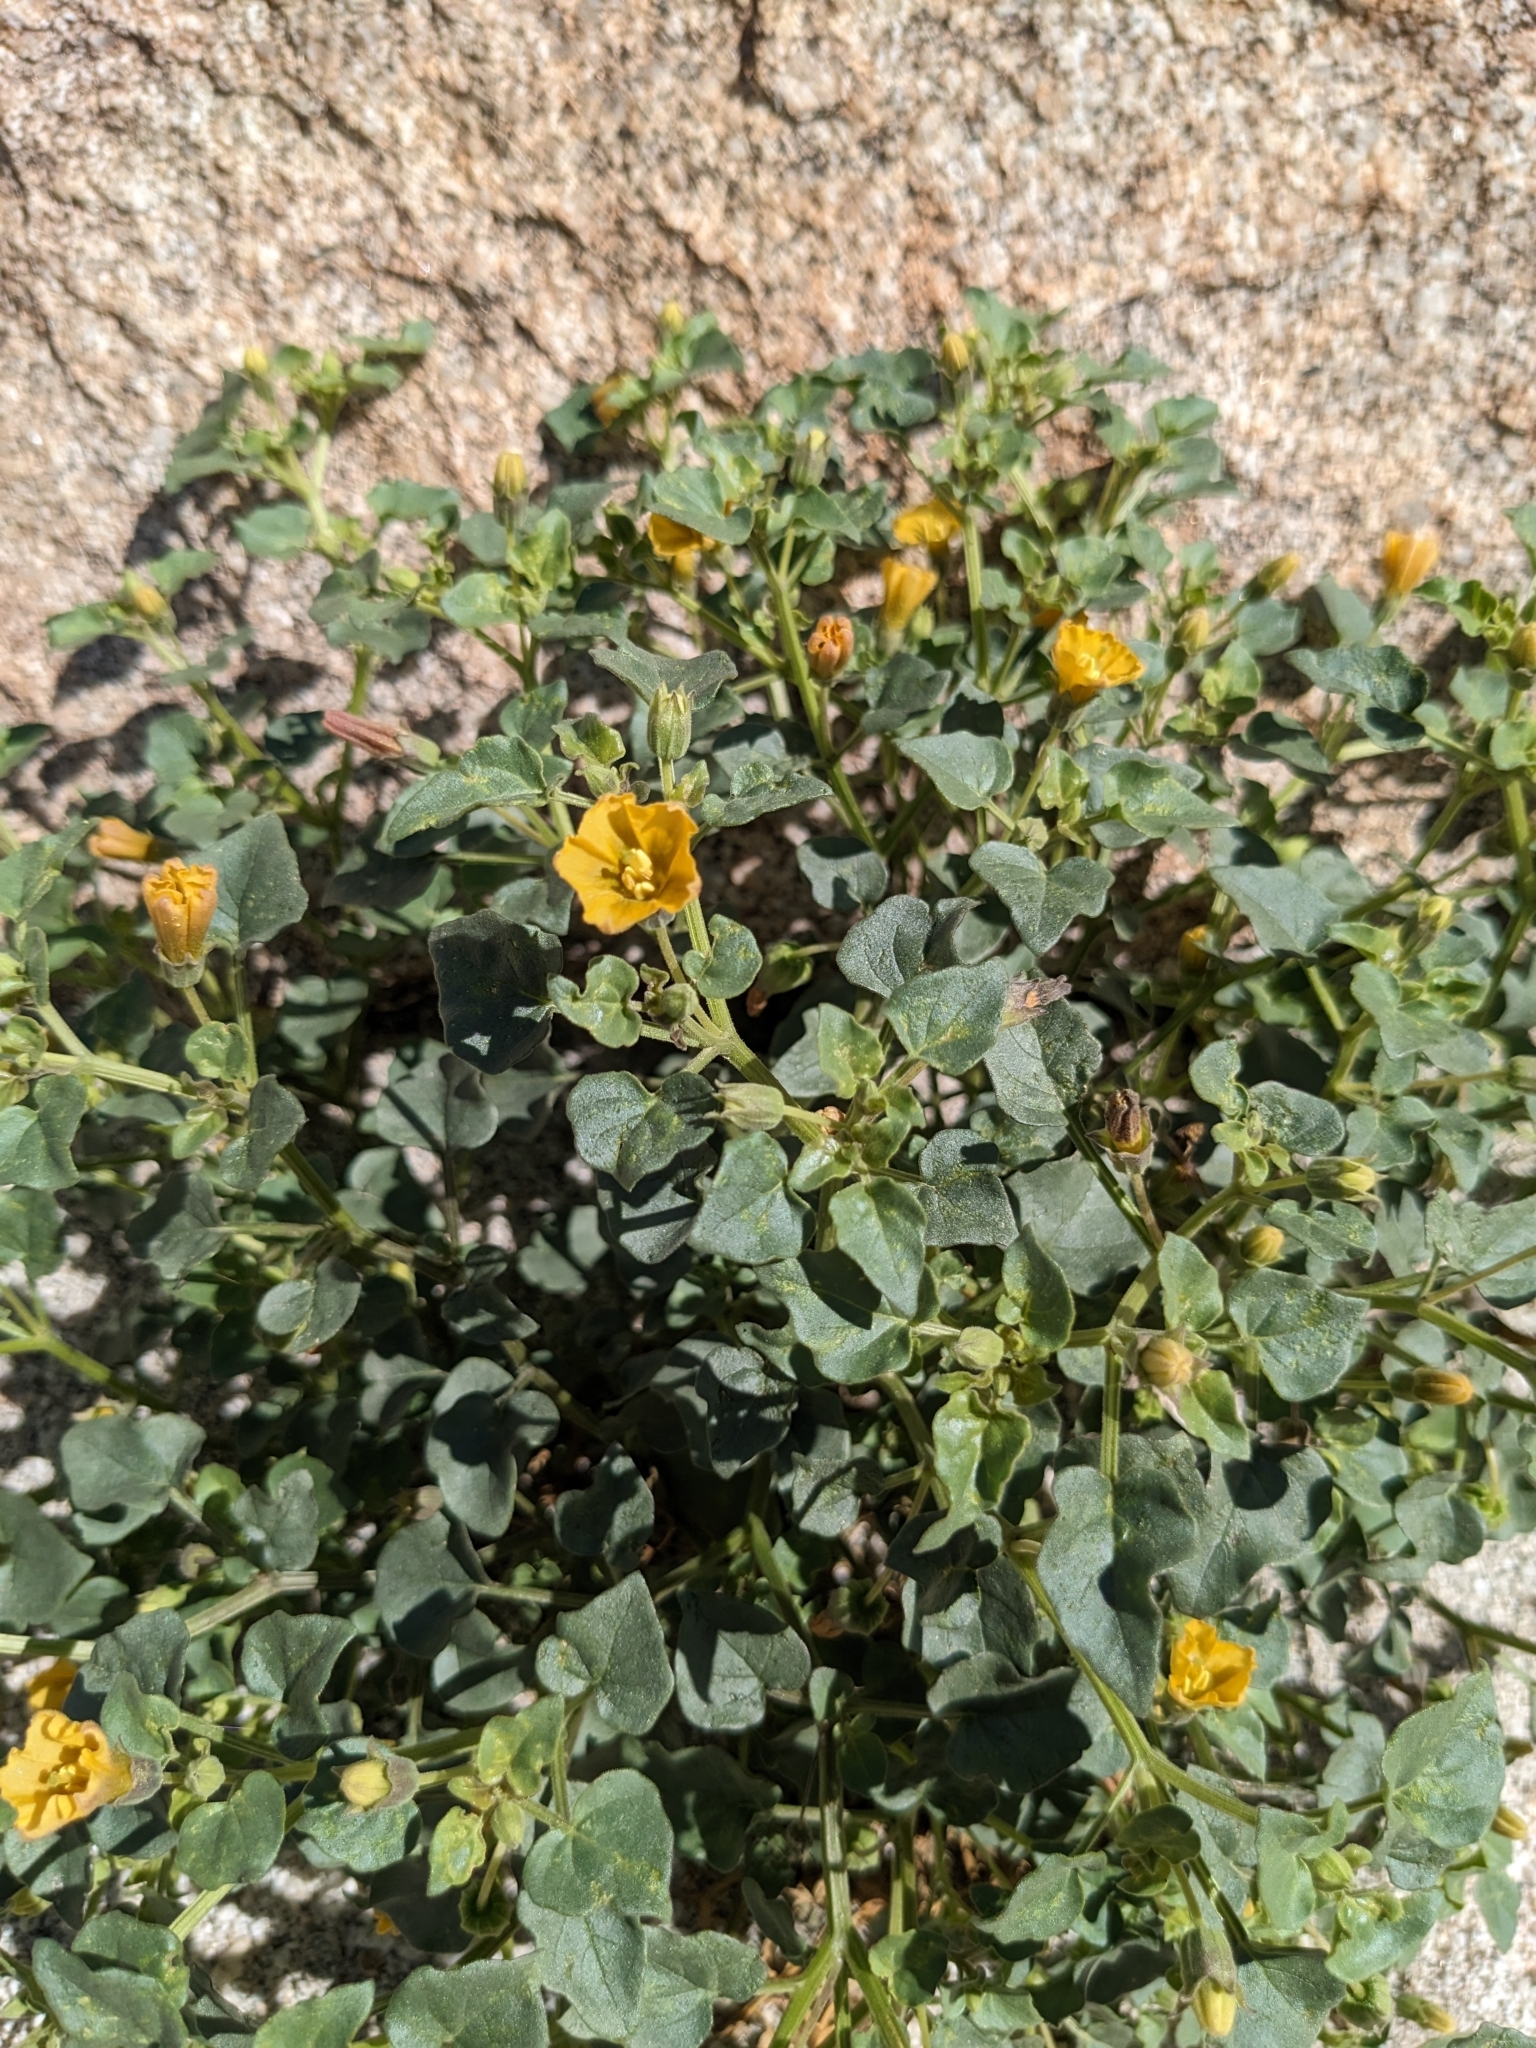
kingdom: Plantae
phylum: Tracheophyta
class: Magnoliopsida
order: Solanales
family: Solanaceae
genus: Physalis
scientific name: Physalis crassifolia
